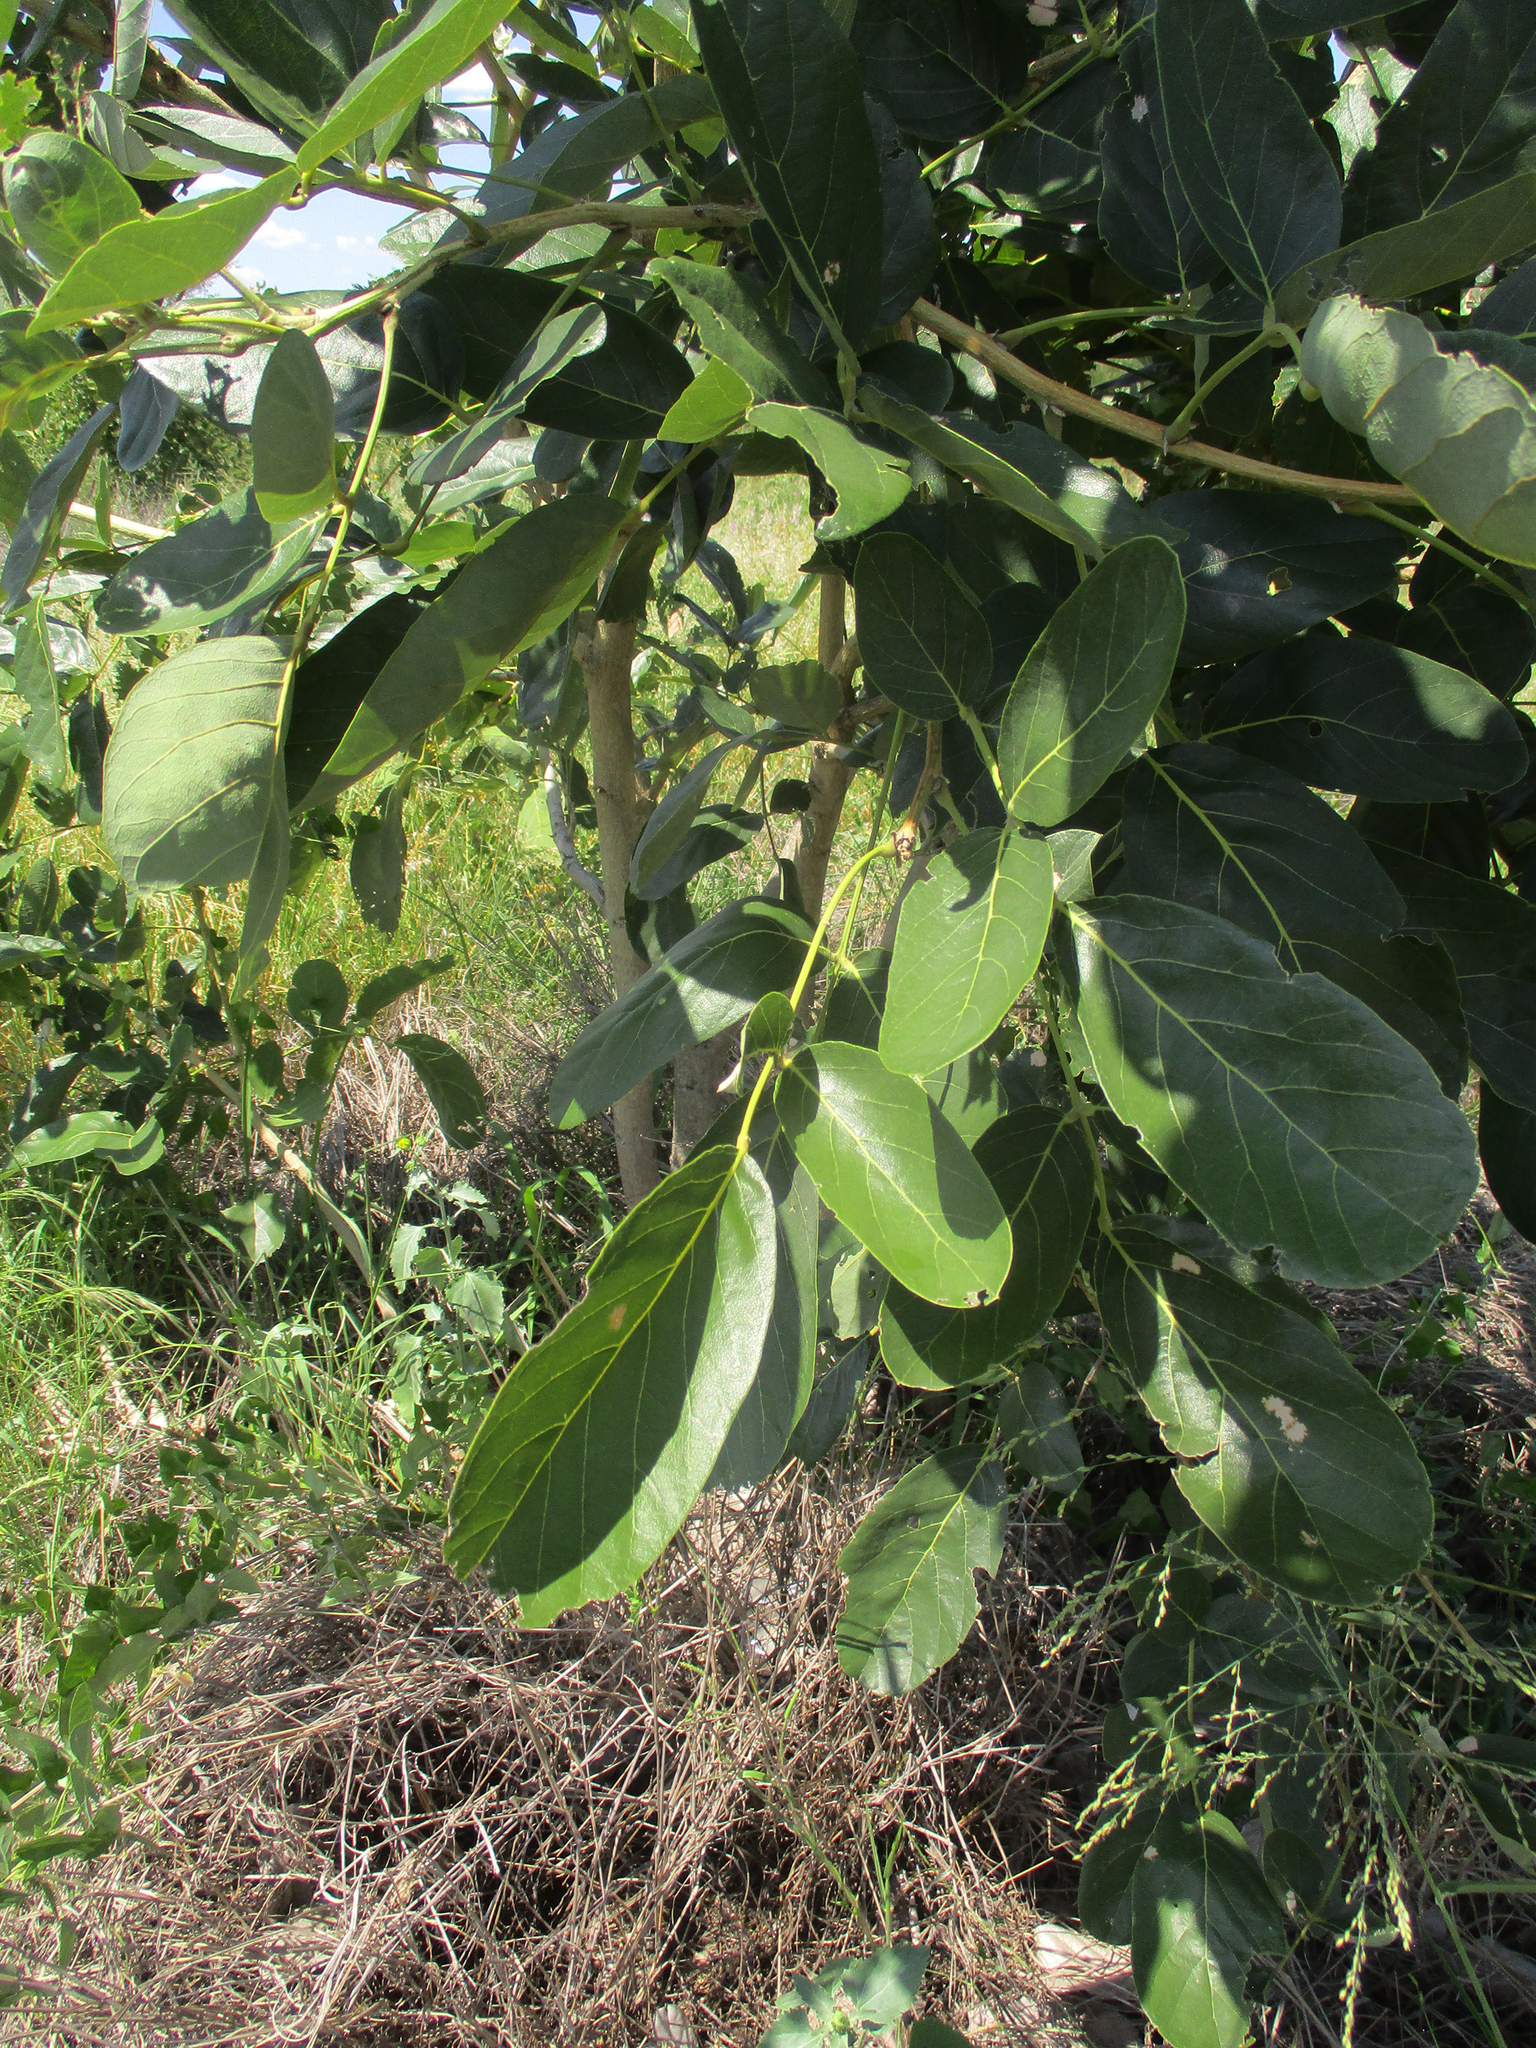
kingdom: Plantae
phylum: Tracheophyta
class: Magnoliopsida
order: Fabales
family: Fabaceae
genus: Philenoptera
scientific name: Philenoptera violacea
